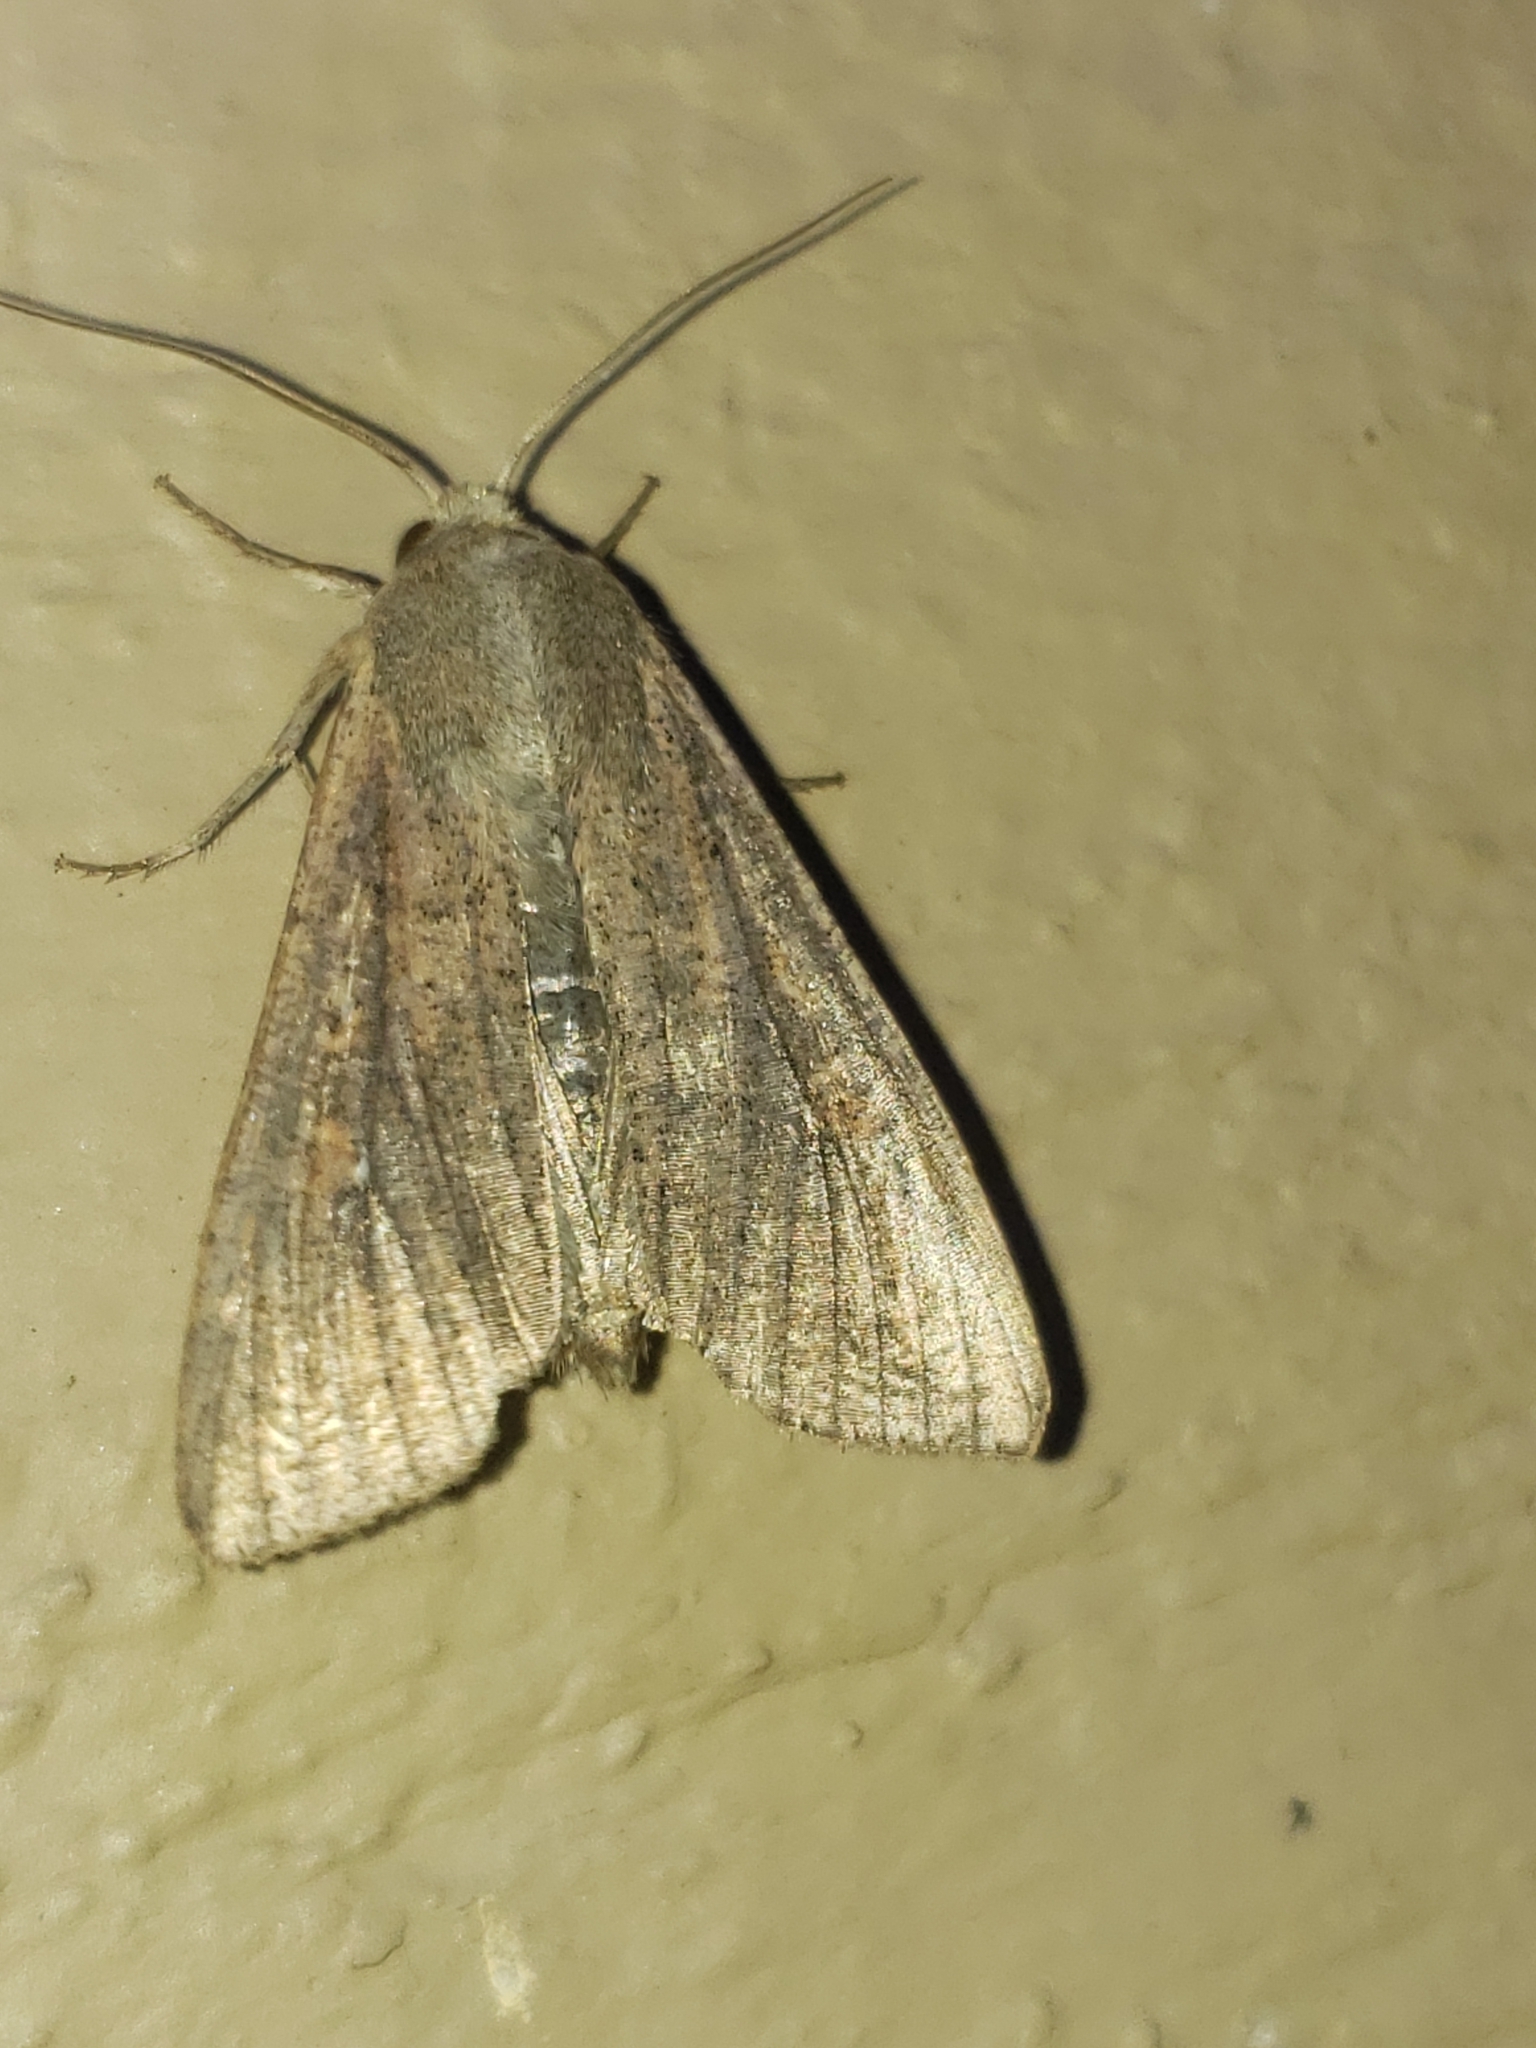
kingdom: Animalia
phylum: Arthropoda
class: Insecta
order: Lepidoptera
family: Noctuidae
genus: Mythimna
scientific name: Mythimna unipuncta
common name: White-speck
